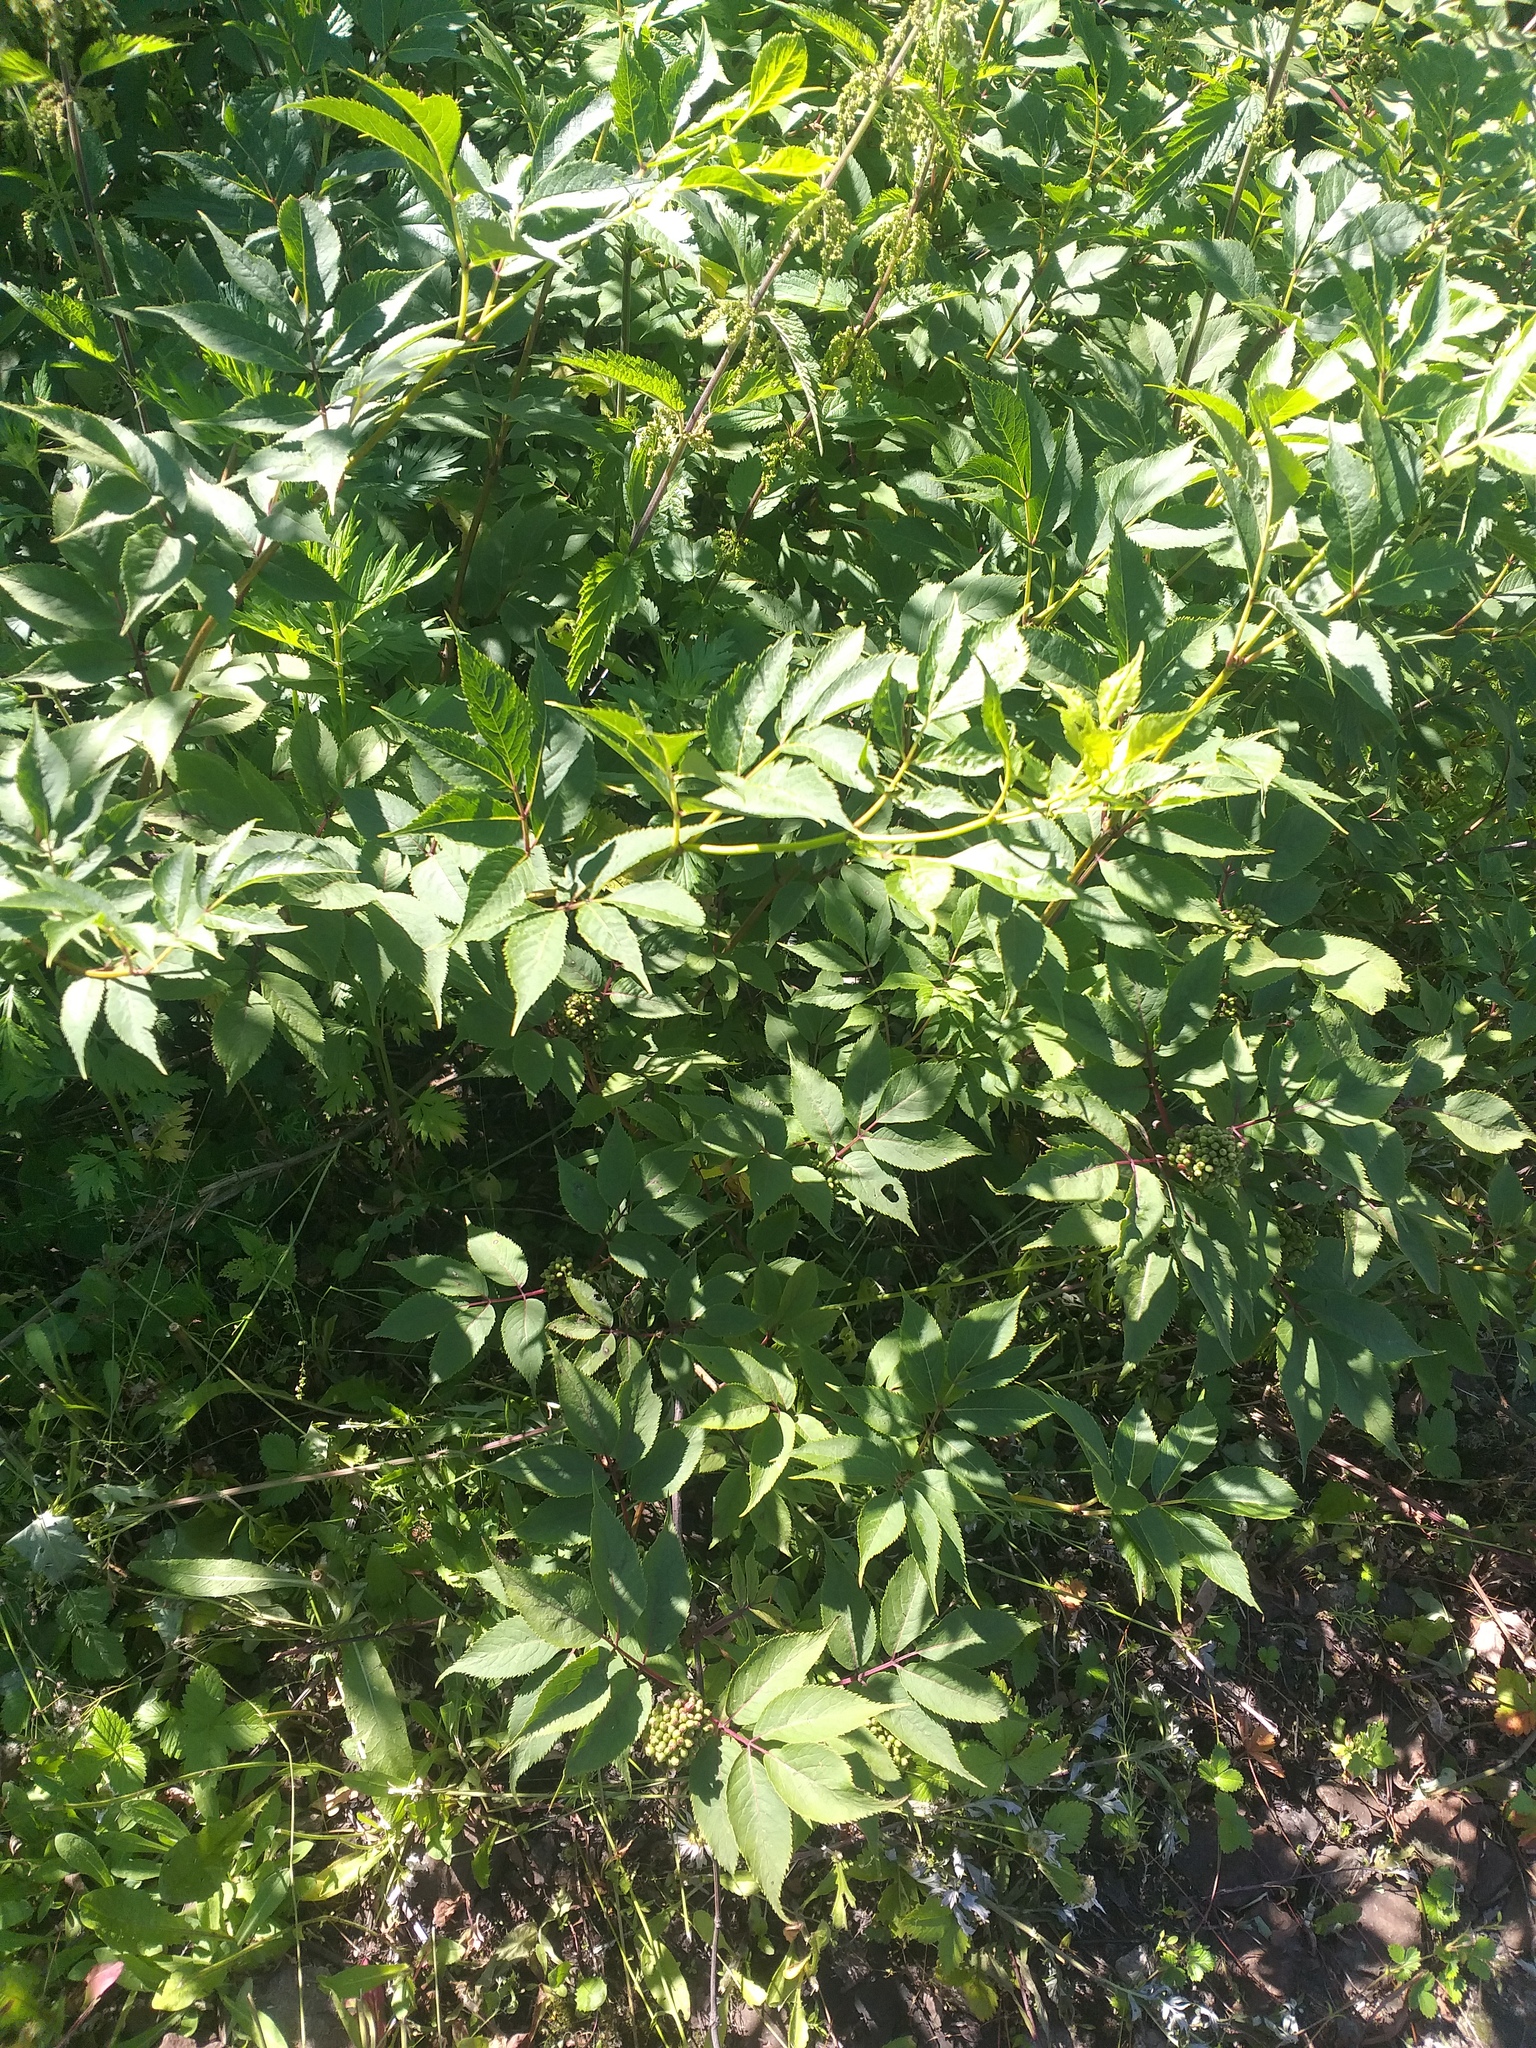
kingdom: Plantae
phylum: Tracheophyta
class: Magnoliopsida
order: Dipsacales
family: Viburnaceae
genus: Sambucus
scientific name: Sambucus racemosa
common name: Red-berried elder
